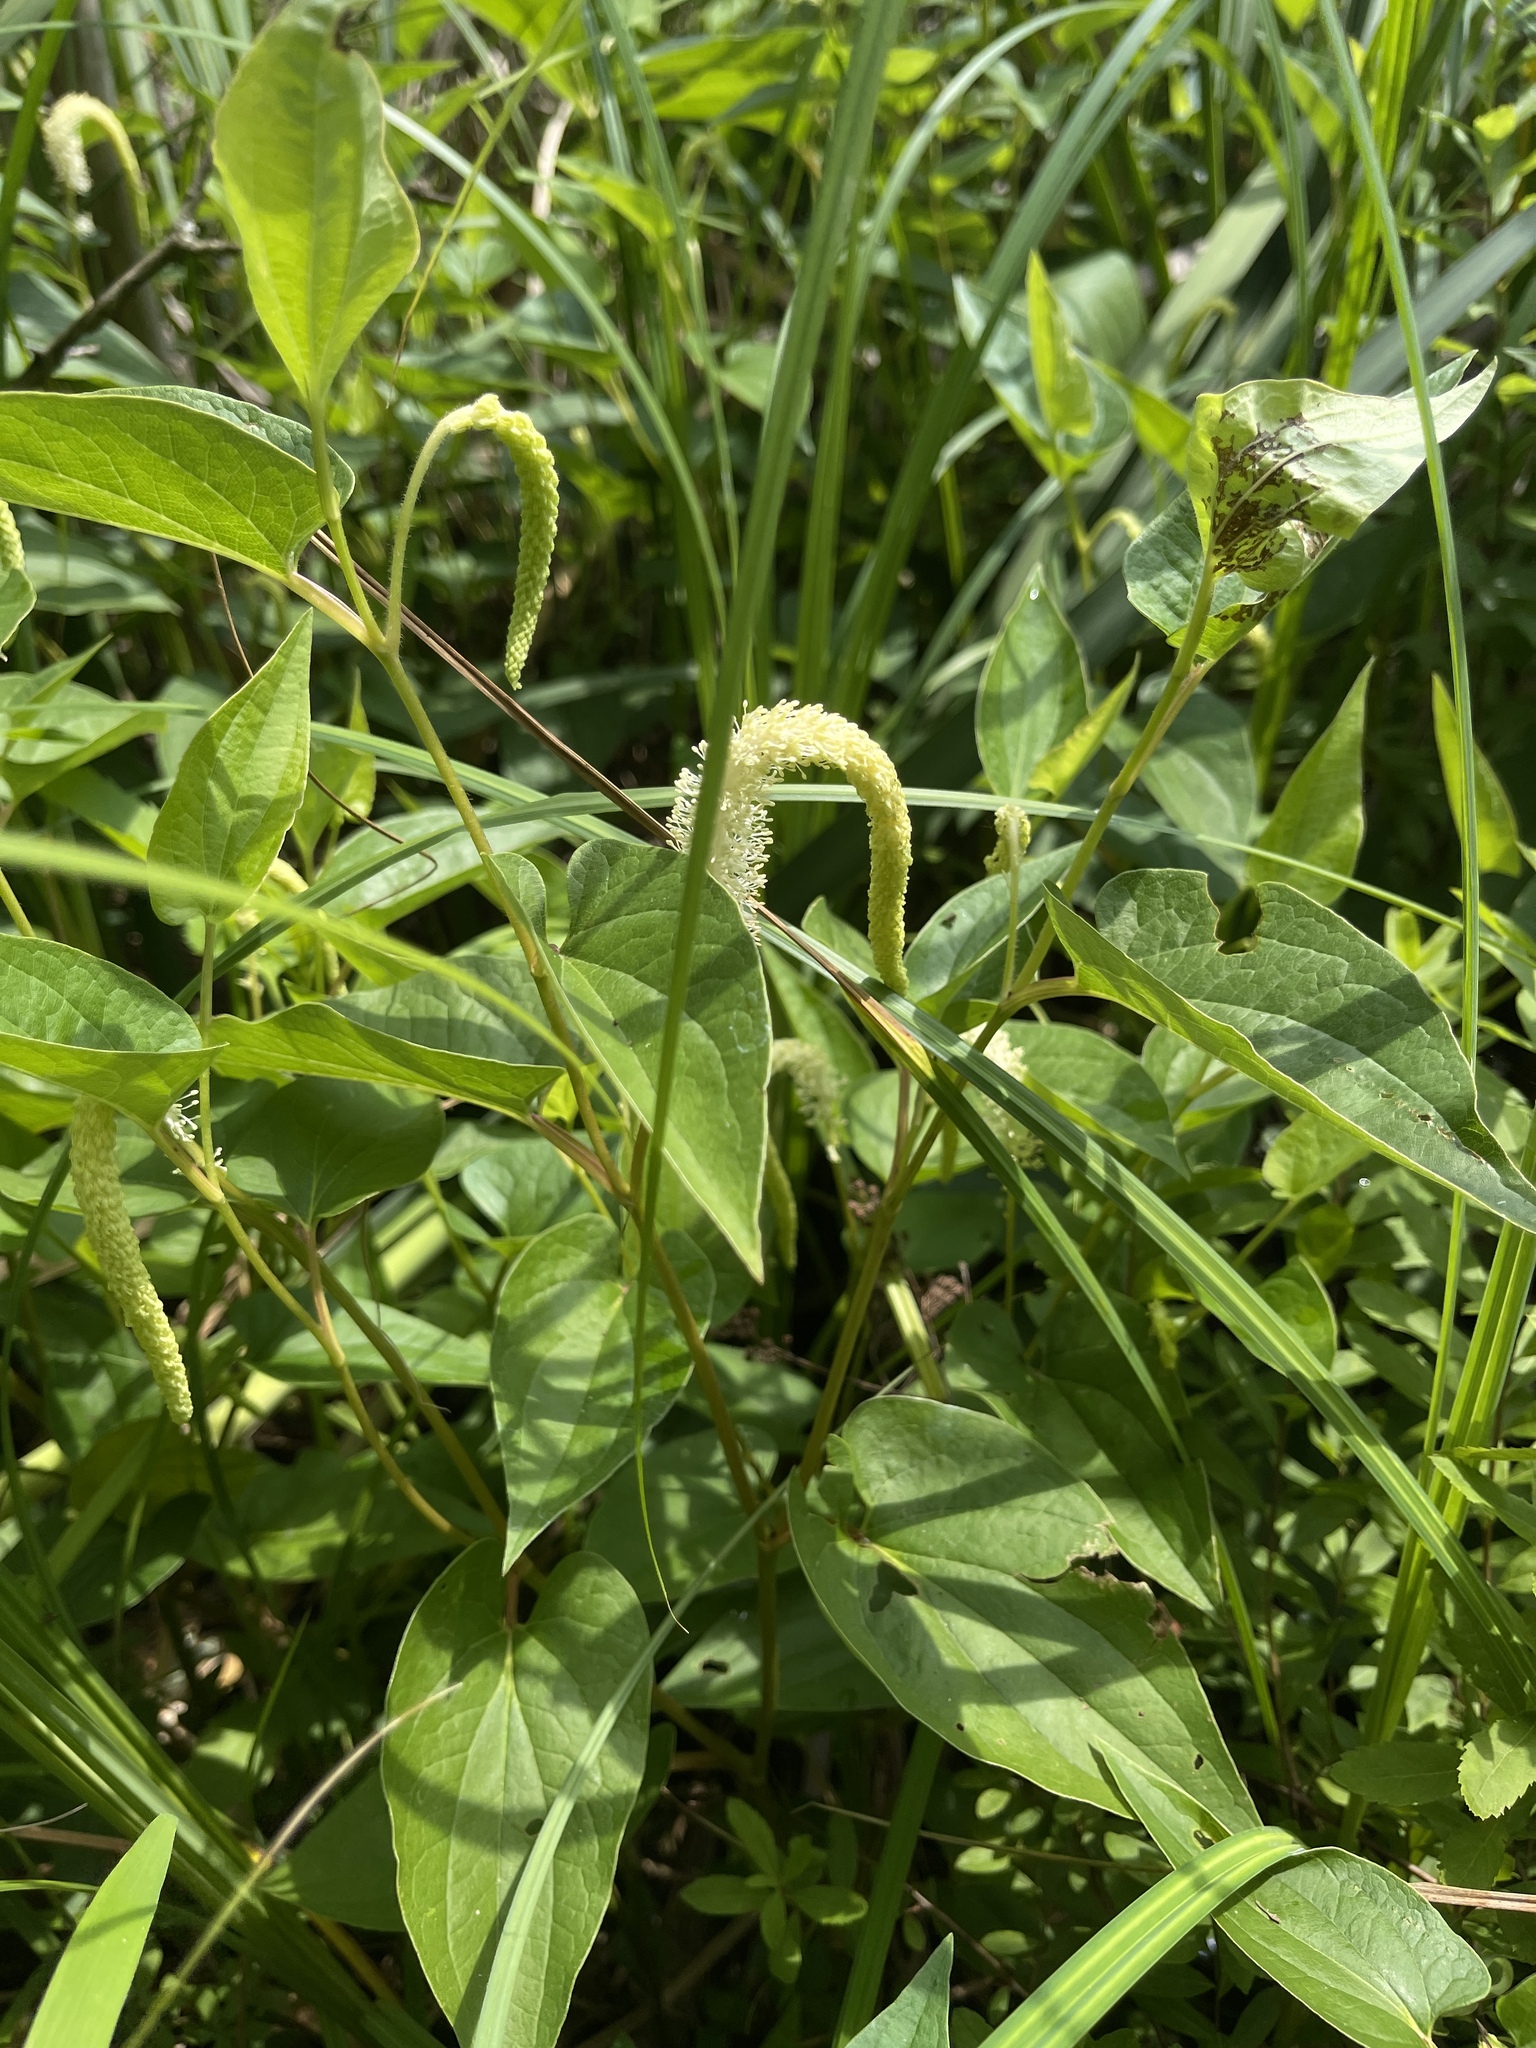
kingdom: Plantae
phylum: Tracheophyta
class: Magnoliopsida
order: Piperales
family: Saururaceae
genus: Saururus
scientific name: Saururus cernuus
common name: Lizard's-tail
